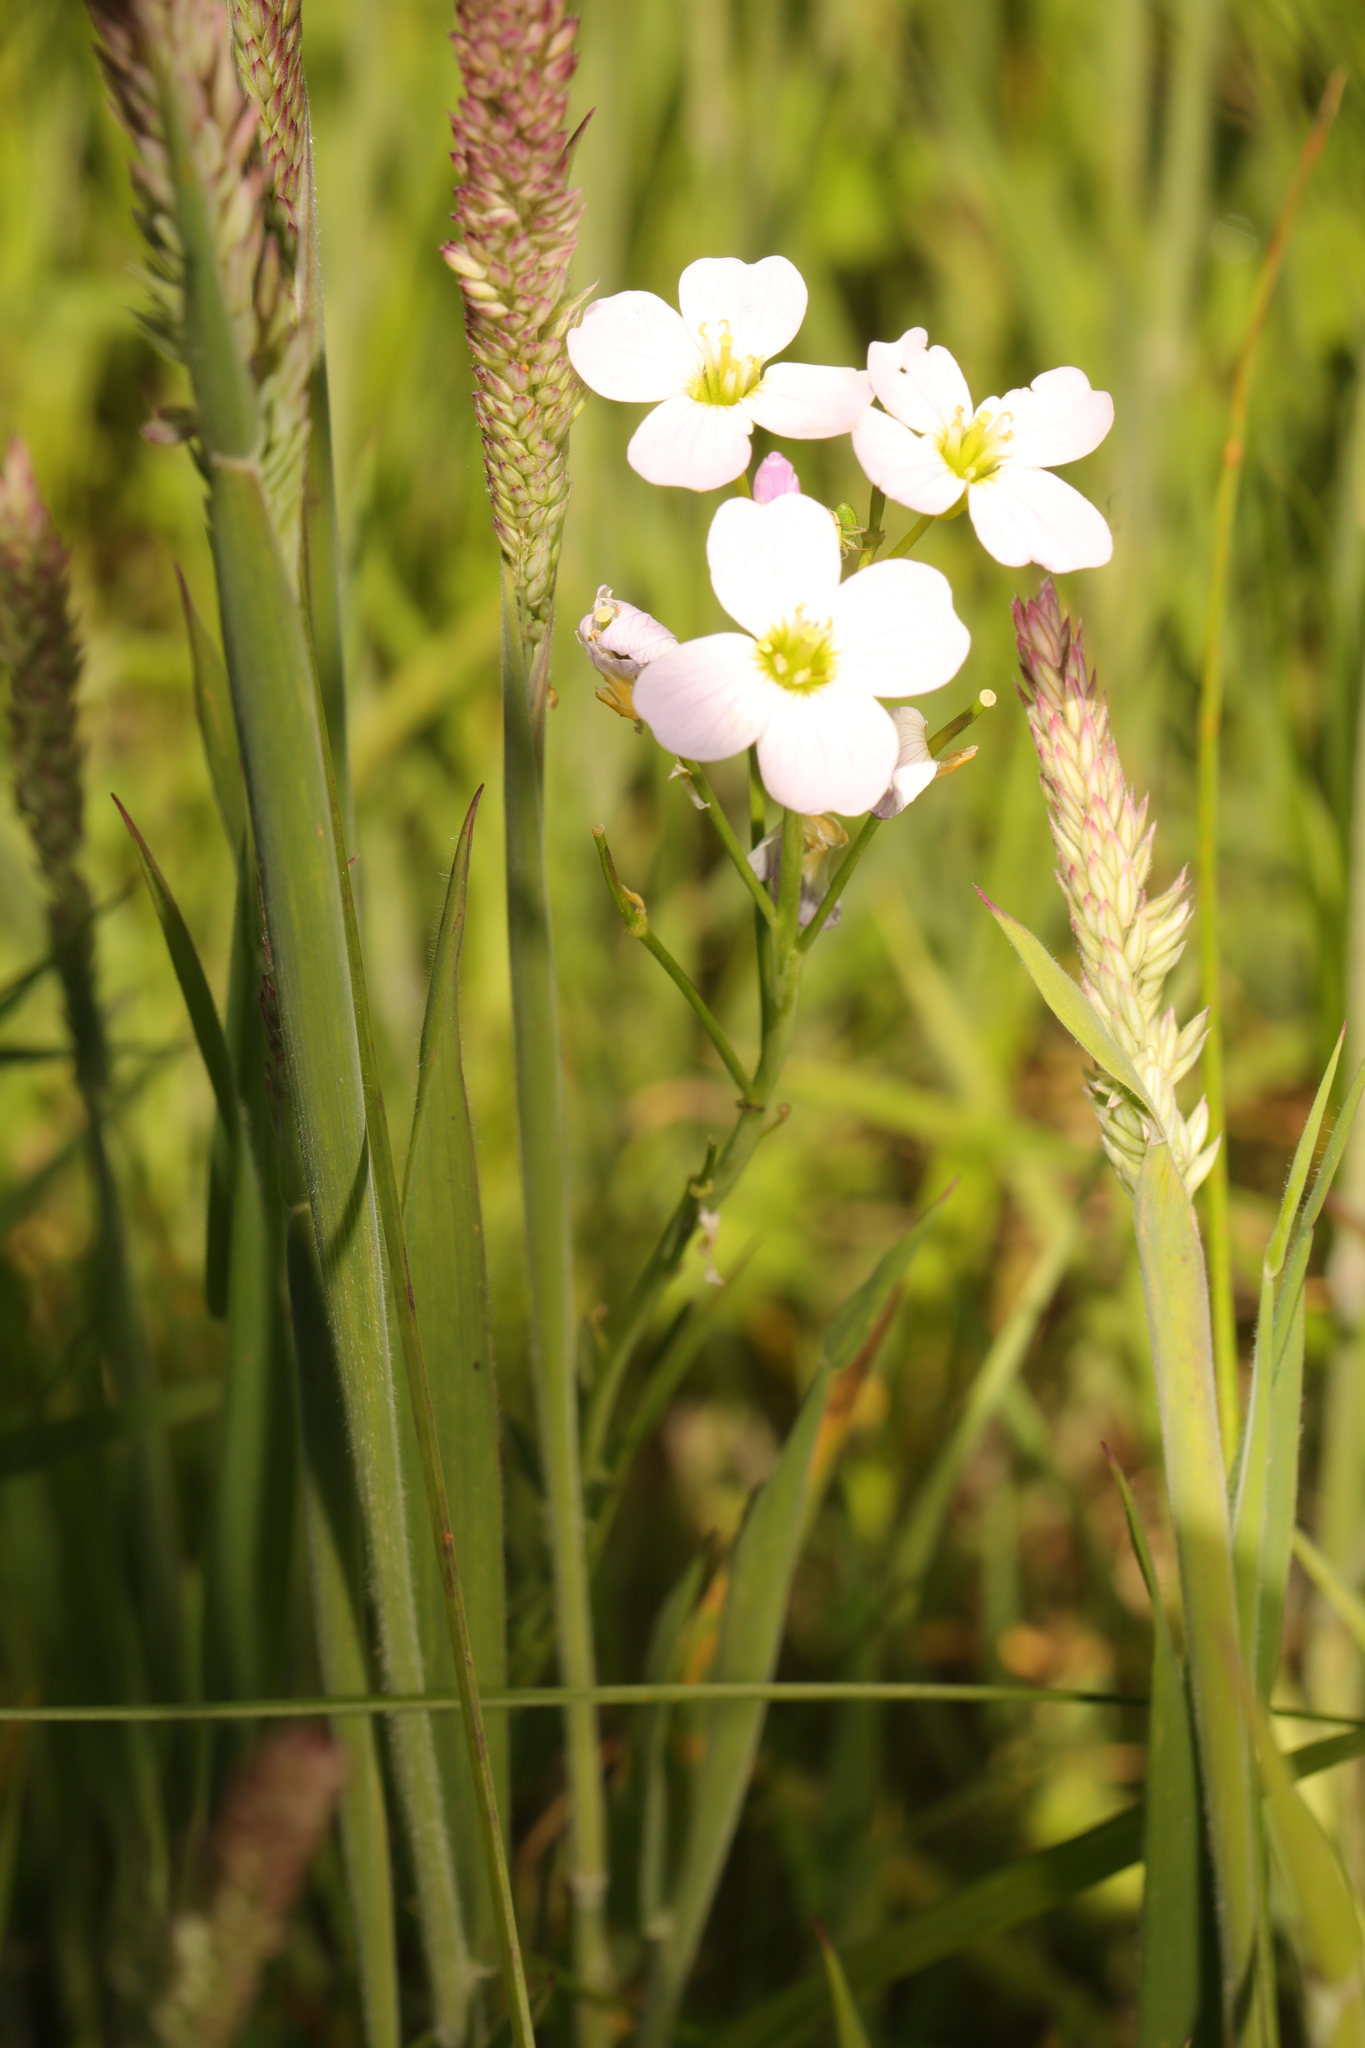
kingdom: Plantae
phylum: Tracheophyta
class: Magnoliopsida
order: Brassicales
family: Brassicaceae
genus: Cardamine
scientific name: Cardamine pratensis
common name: Cuckoo flower
